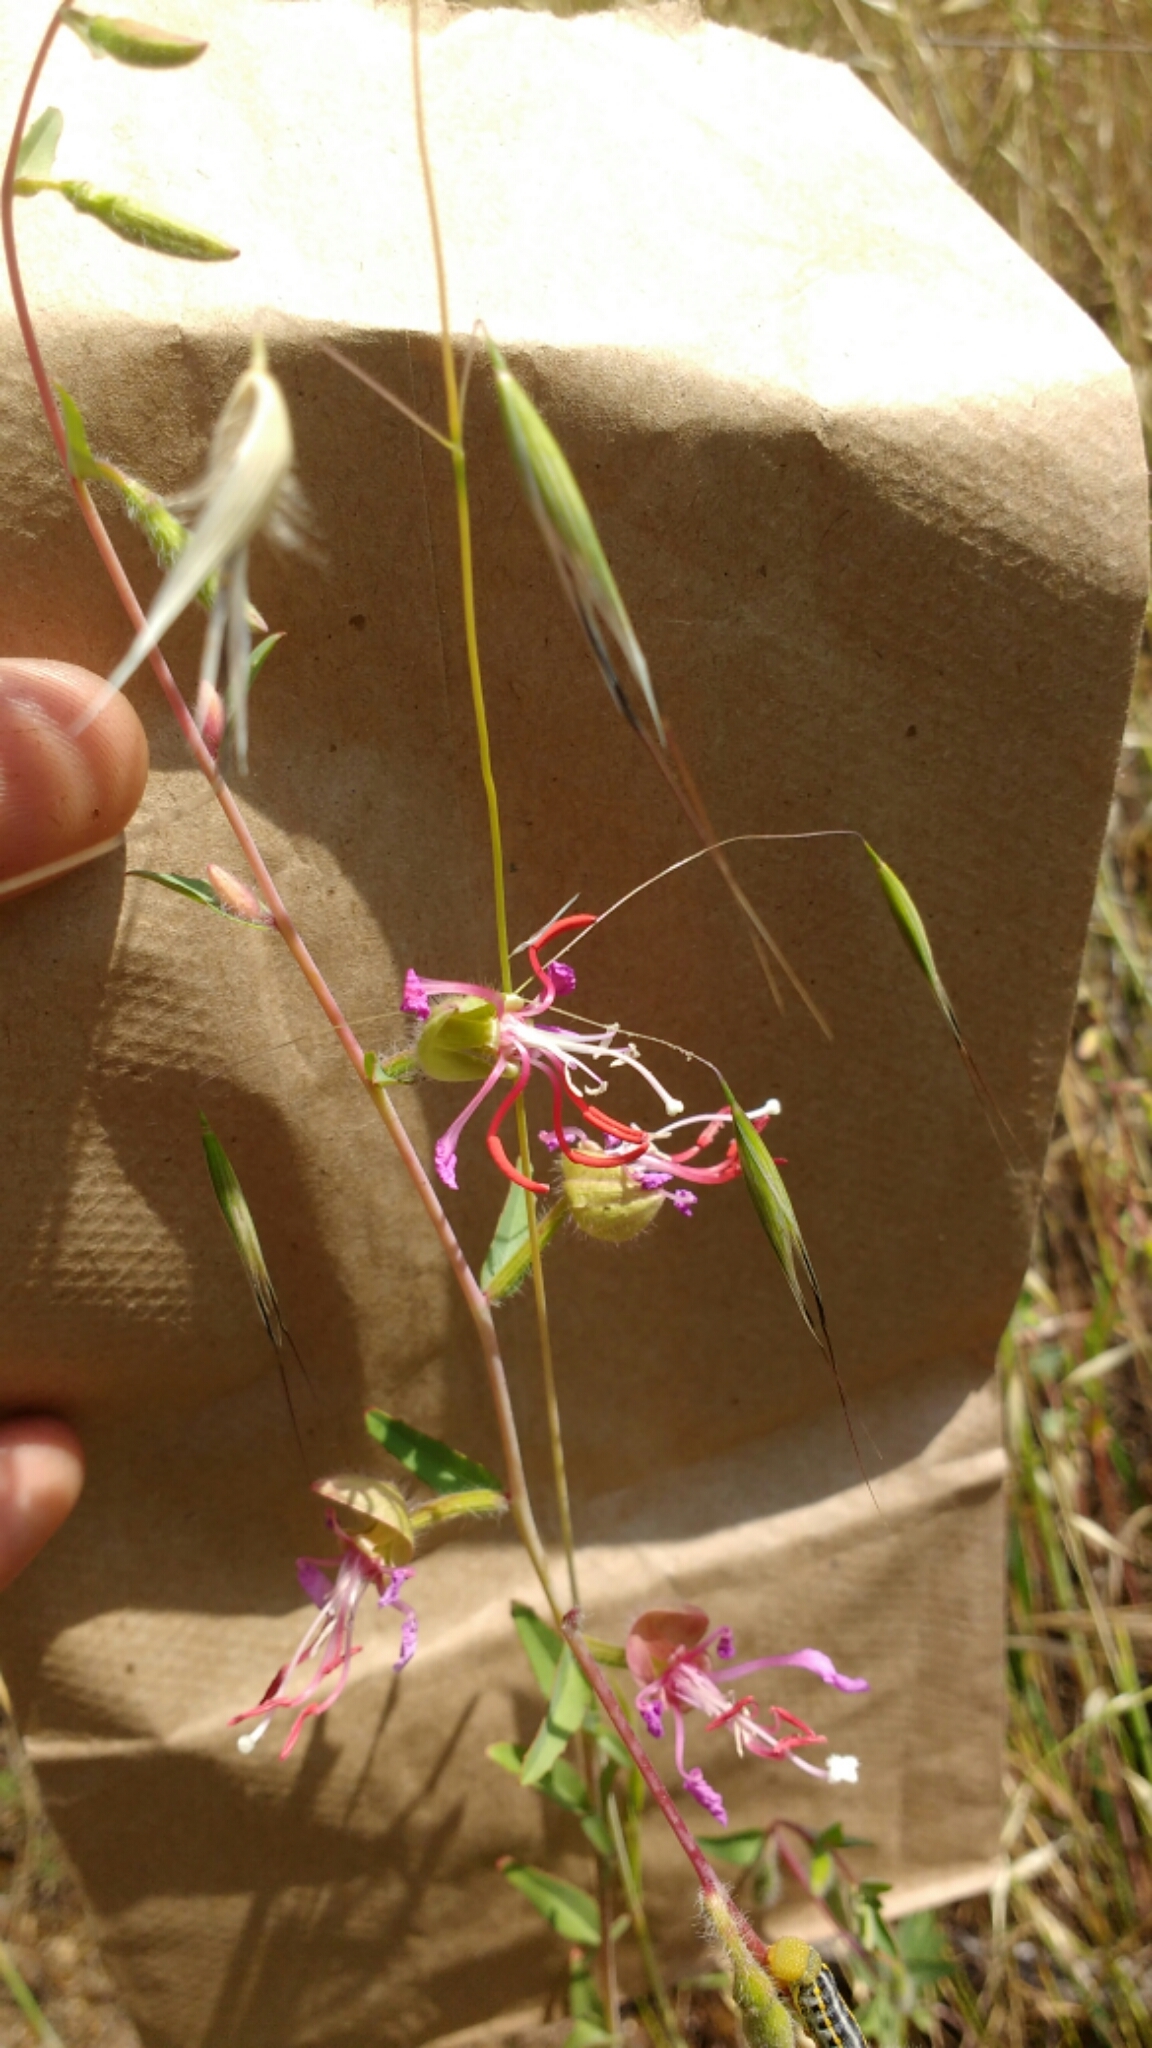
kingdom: Plantae
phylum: Tracheophyta
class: Magnoliopsida
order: Myrtales
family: Onagraceae
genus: Clarkia
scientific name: Clarkia unguiculata
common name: Clarkia
